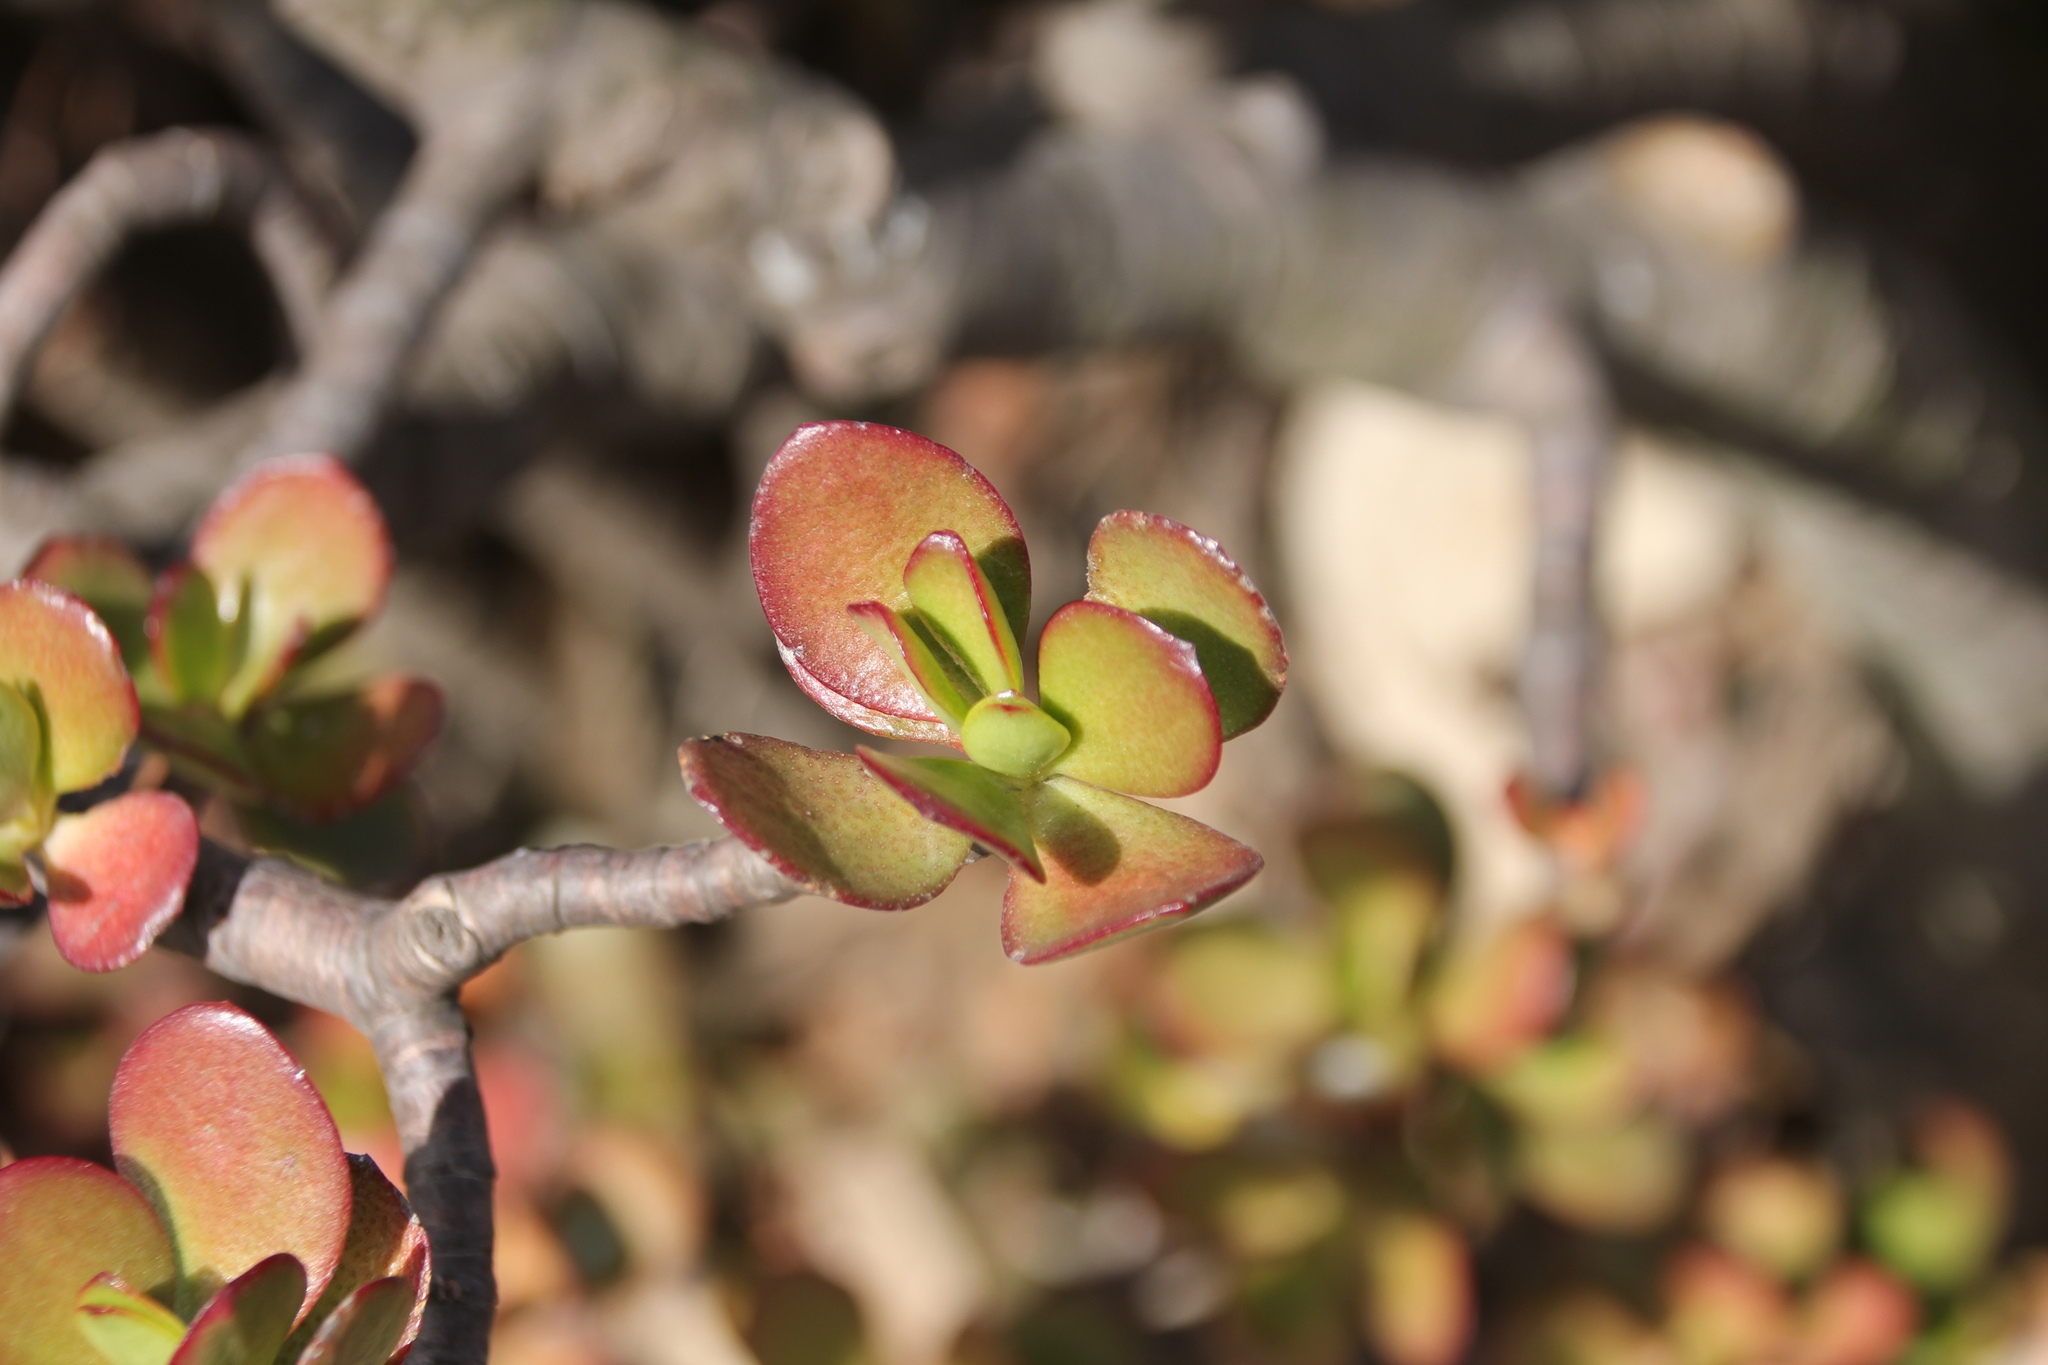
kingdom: Plantae
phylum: Tracheophyta
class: Magnoliopsida
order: Saxifragales
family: Crassulaceae
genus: Crassula
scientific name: Crassula ovata
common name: Jade plant
